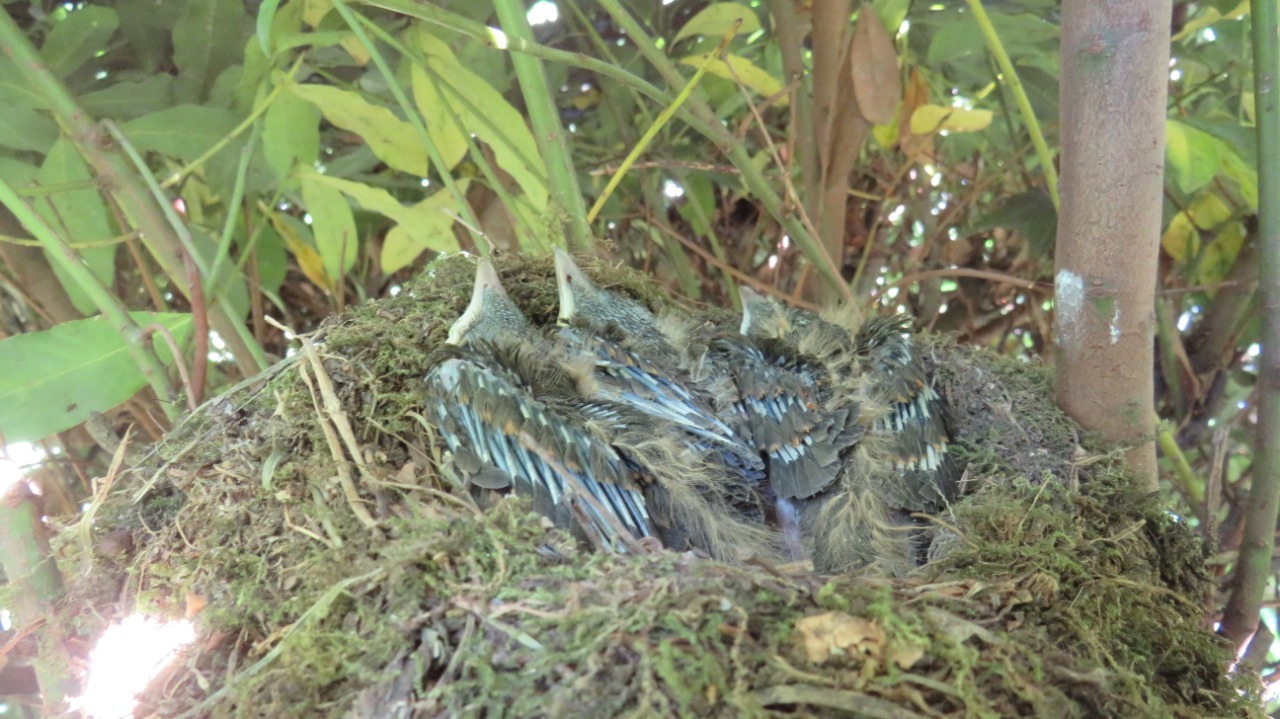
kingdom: Animalia
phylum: Chordata
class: Aves
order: Passeriformes
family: Turdidae
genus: Turdus
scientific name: Turdus amaurochalinus
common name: Creamy-bellied thrush
